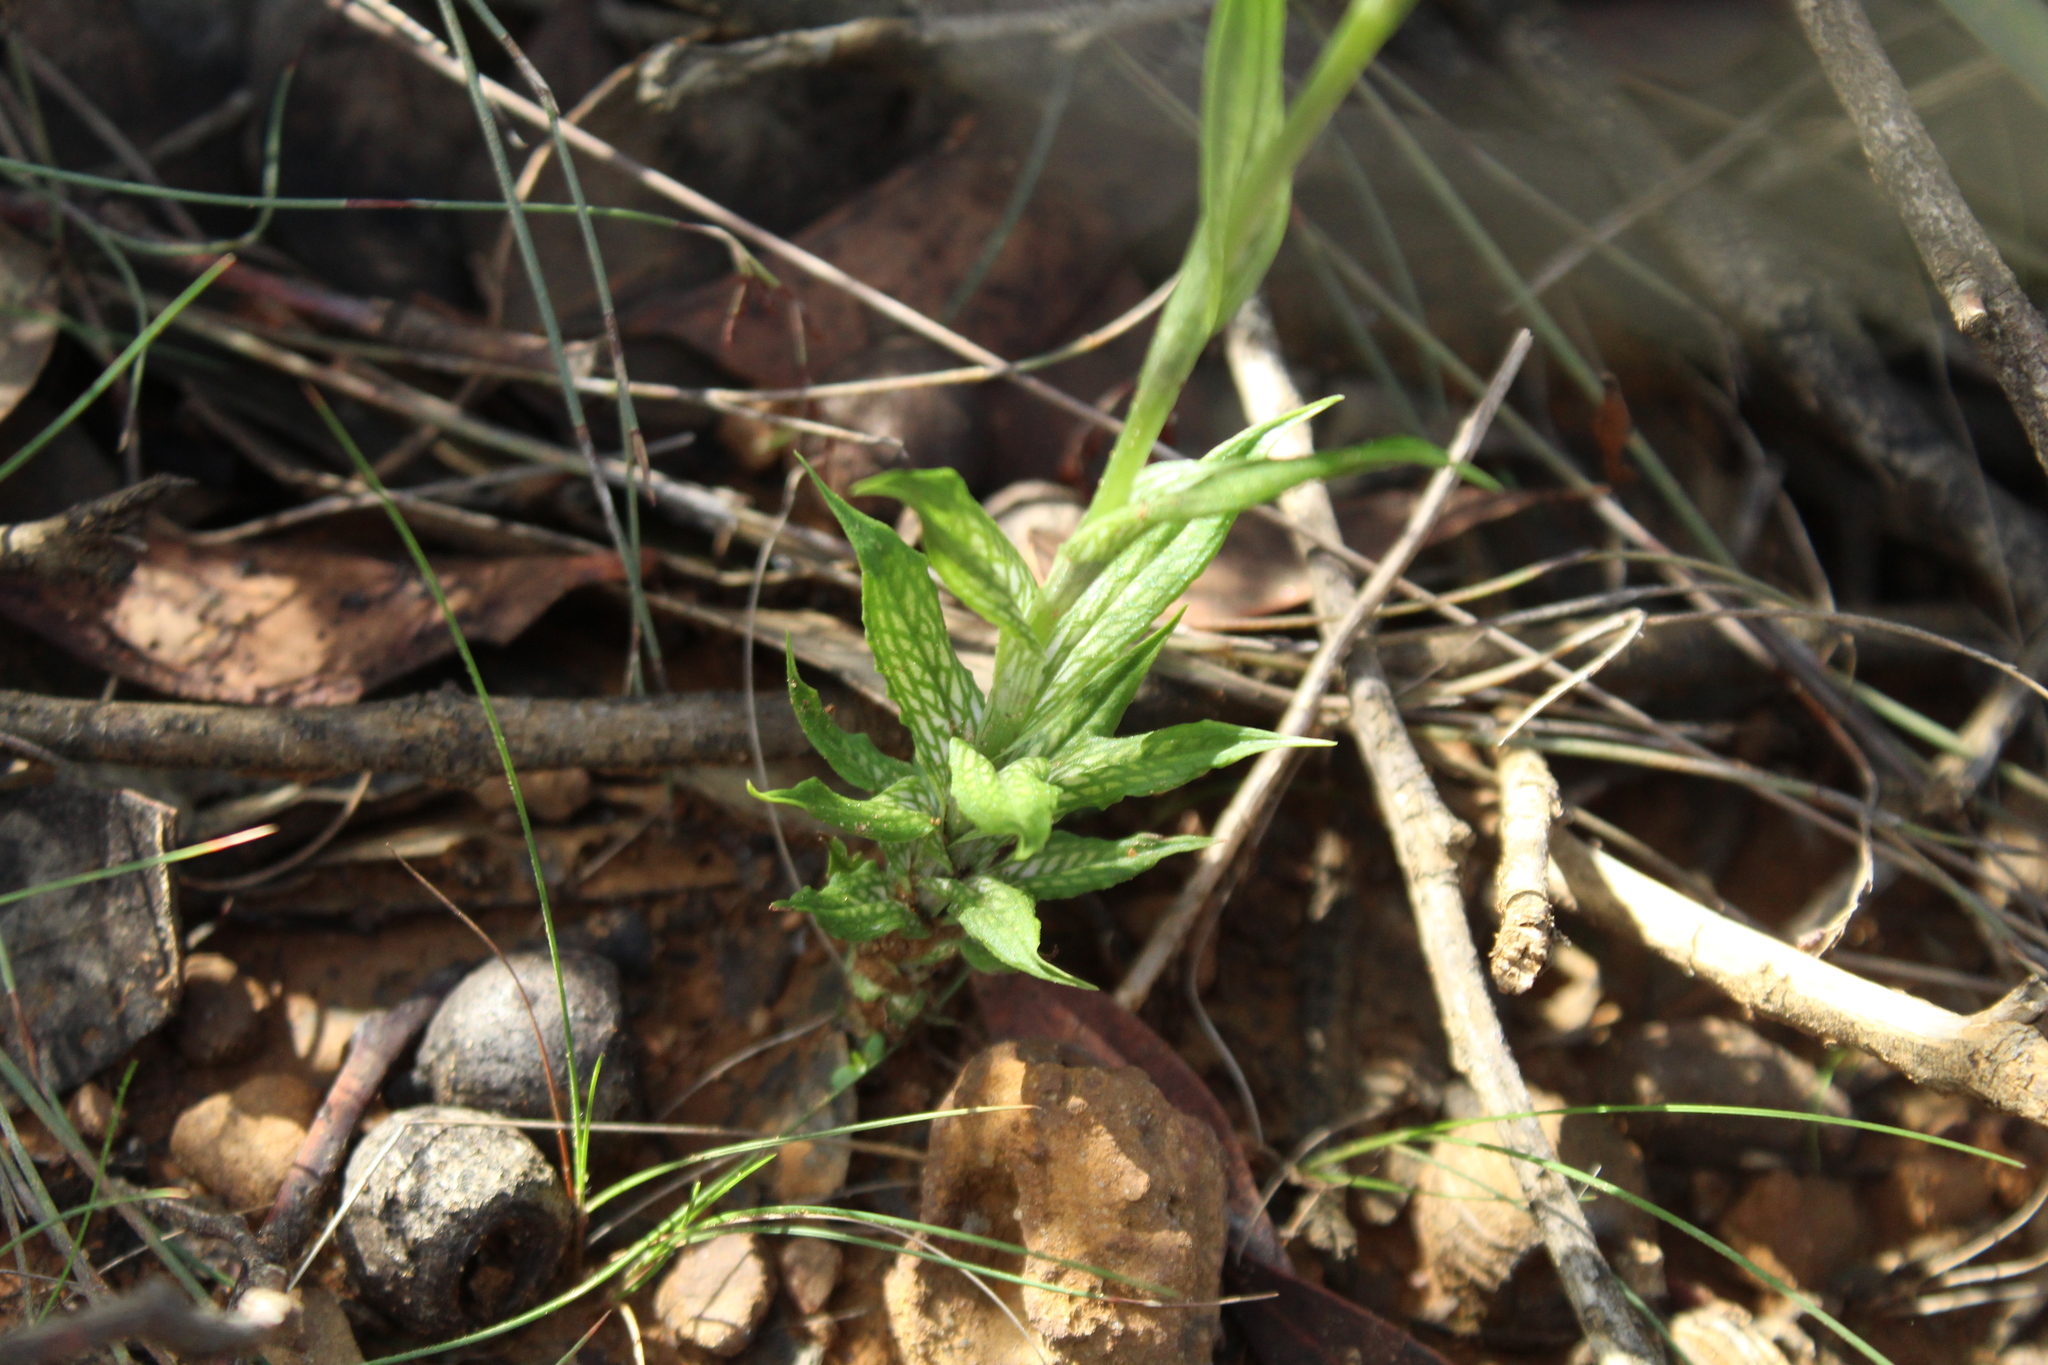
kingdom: Plantae
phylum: Tracheophyta
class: Liliopsida
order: Asparagales
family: Orchidaceae
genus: Pterostylis
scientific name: Pterostylis barbata
